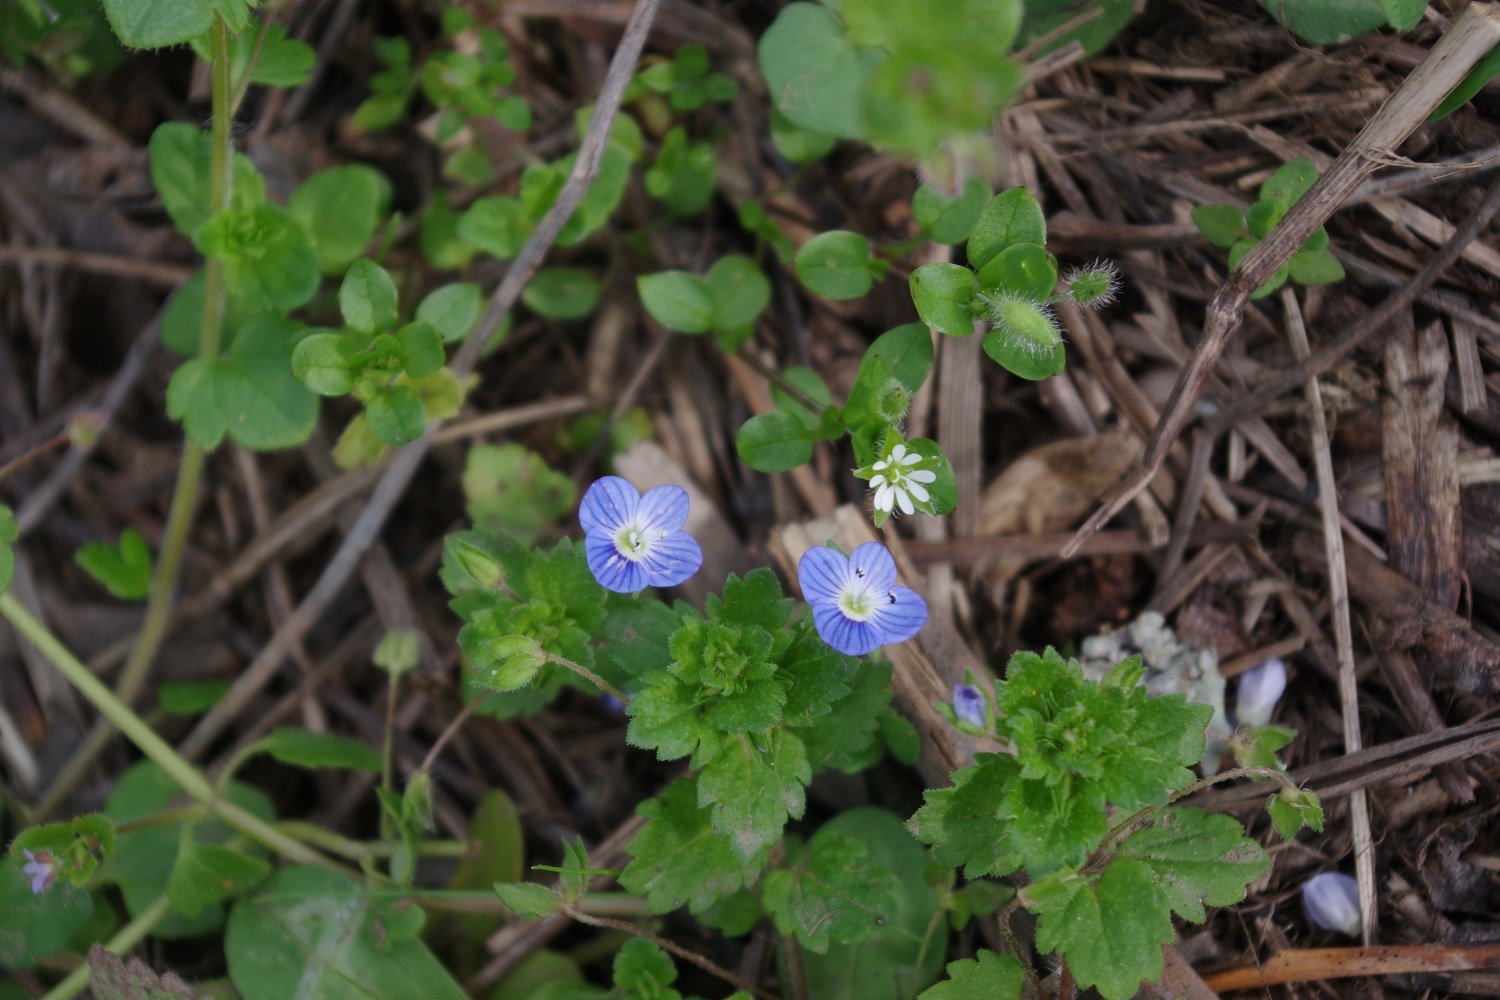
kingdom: Plantae
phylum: Tracheophyta
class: Magnoliopsida
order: Lamiales
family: Plantaginaceae
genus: Veronica
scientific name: Veronica persica
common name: Common field-speedwell
